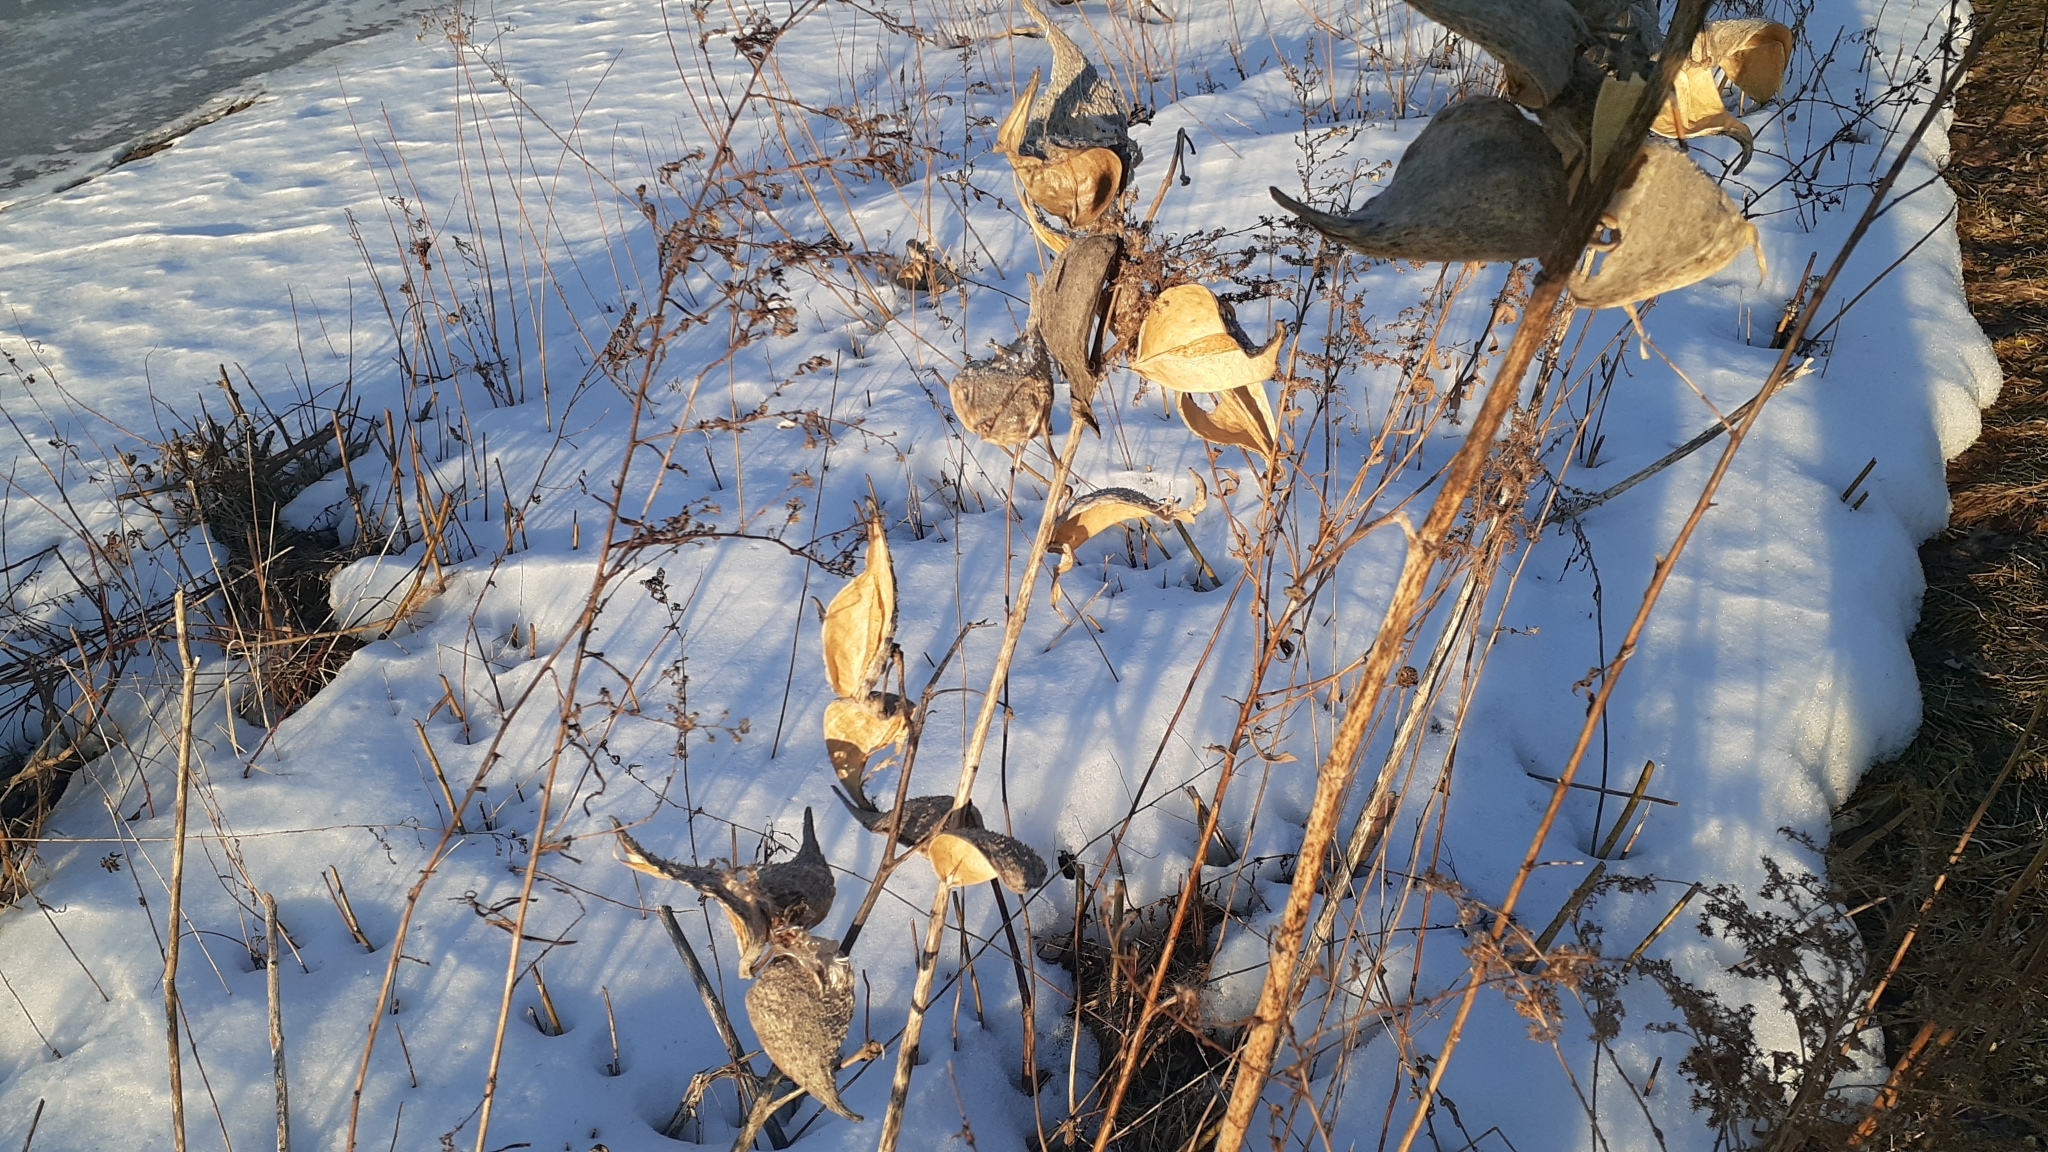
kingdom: Plantae
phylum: Tracheophyta
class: Magnoliopsida
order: Gentianales
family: Apocynaceae
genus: Asclepias
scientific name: Asclepias syriaca
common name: Common milkweed
